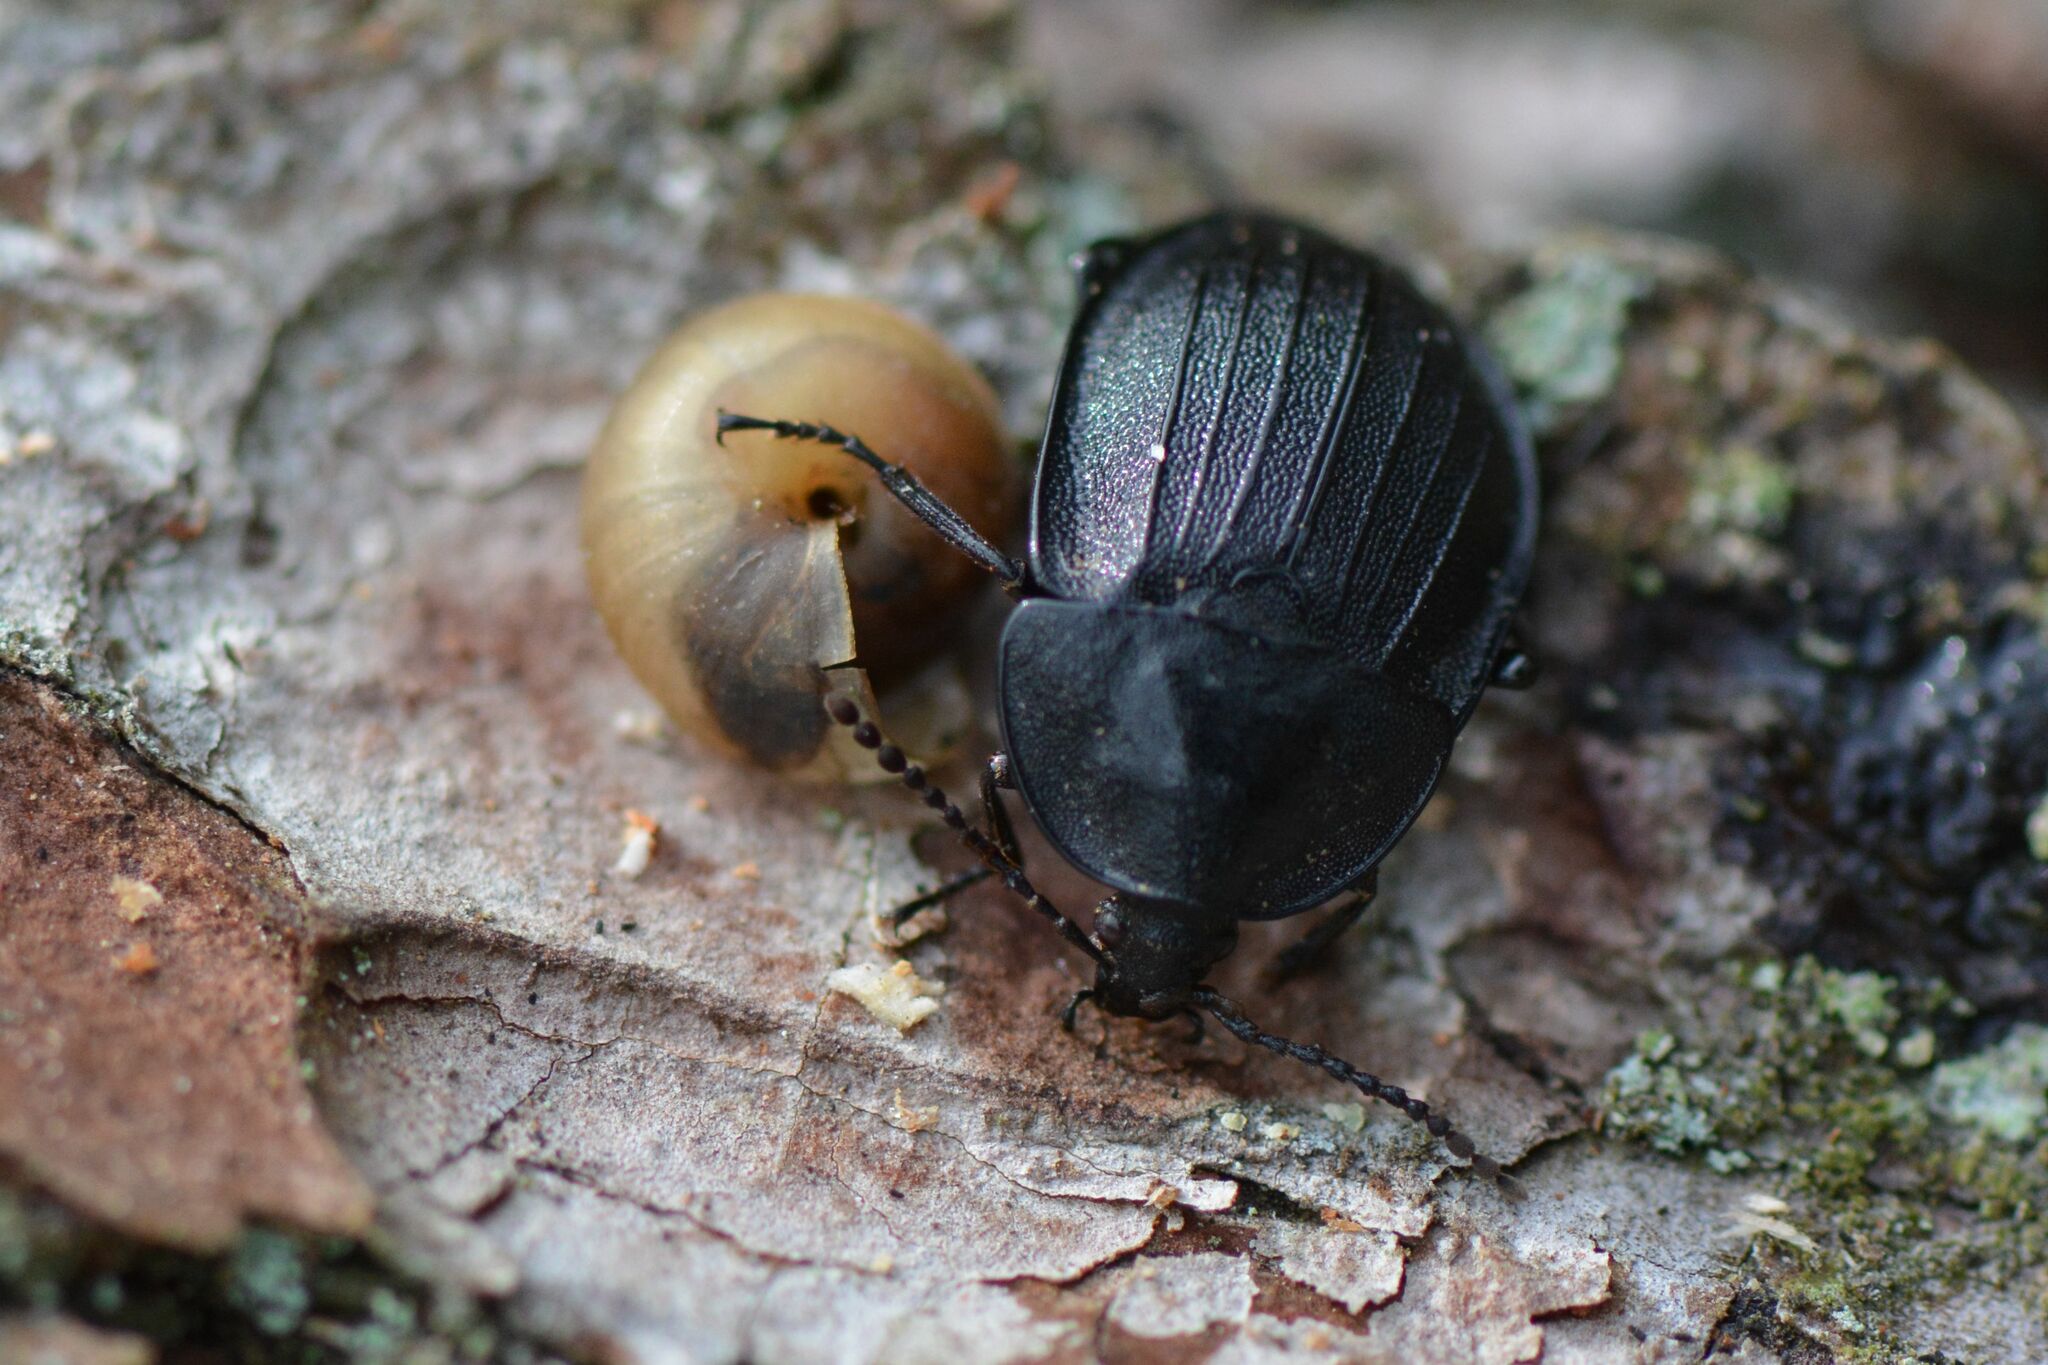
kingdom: Animalia
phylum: Arthropoda
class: Insecta
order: Coleoptera
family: Staphylinidae
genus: Silpha
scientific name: Silpha atrata
